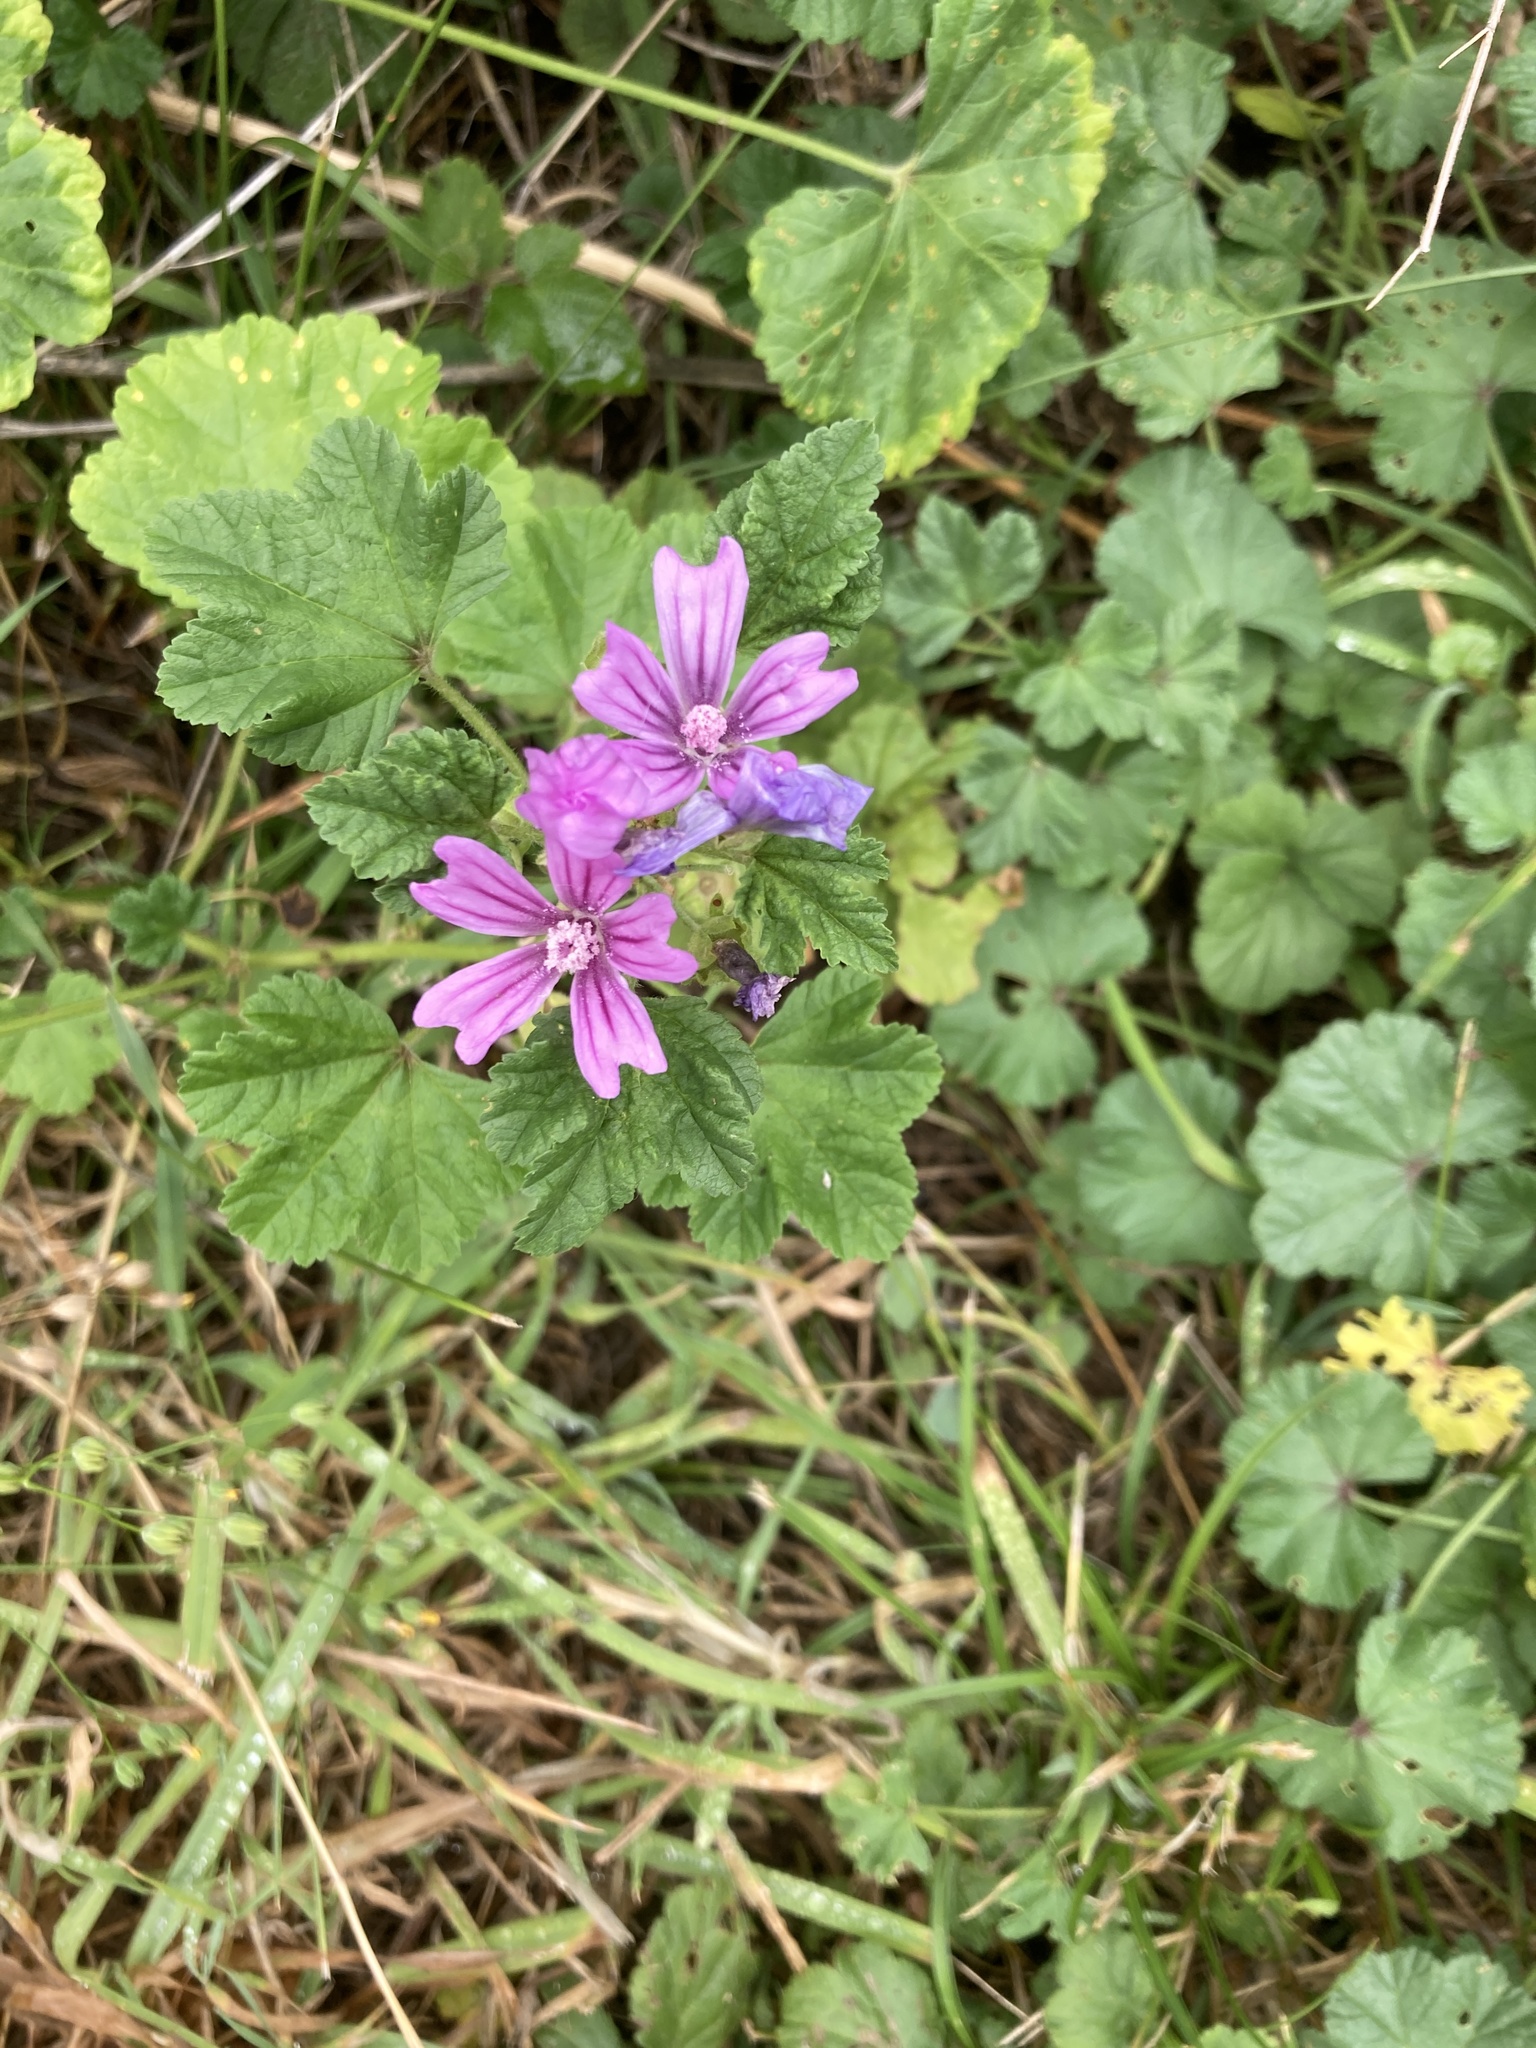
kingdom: Plantae
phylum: Tracheophyta
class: Magnoliopsida
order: Malvales
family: Malvaceae
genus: Malva
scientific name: Malva sylvestris
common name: Common mallow
